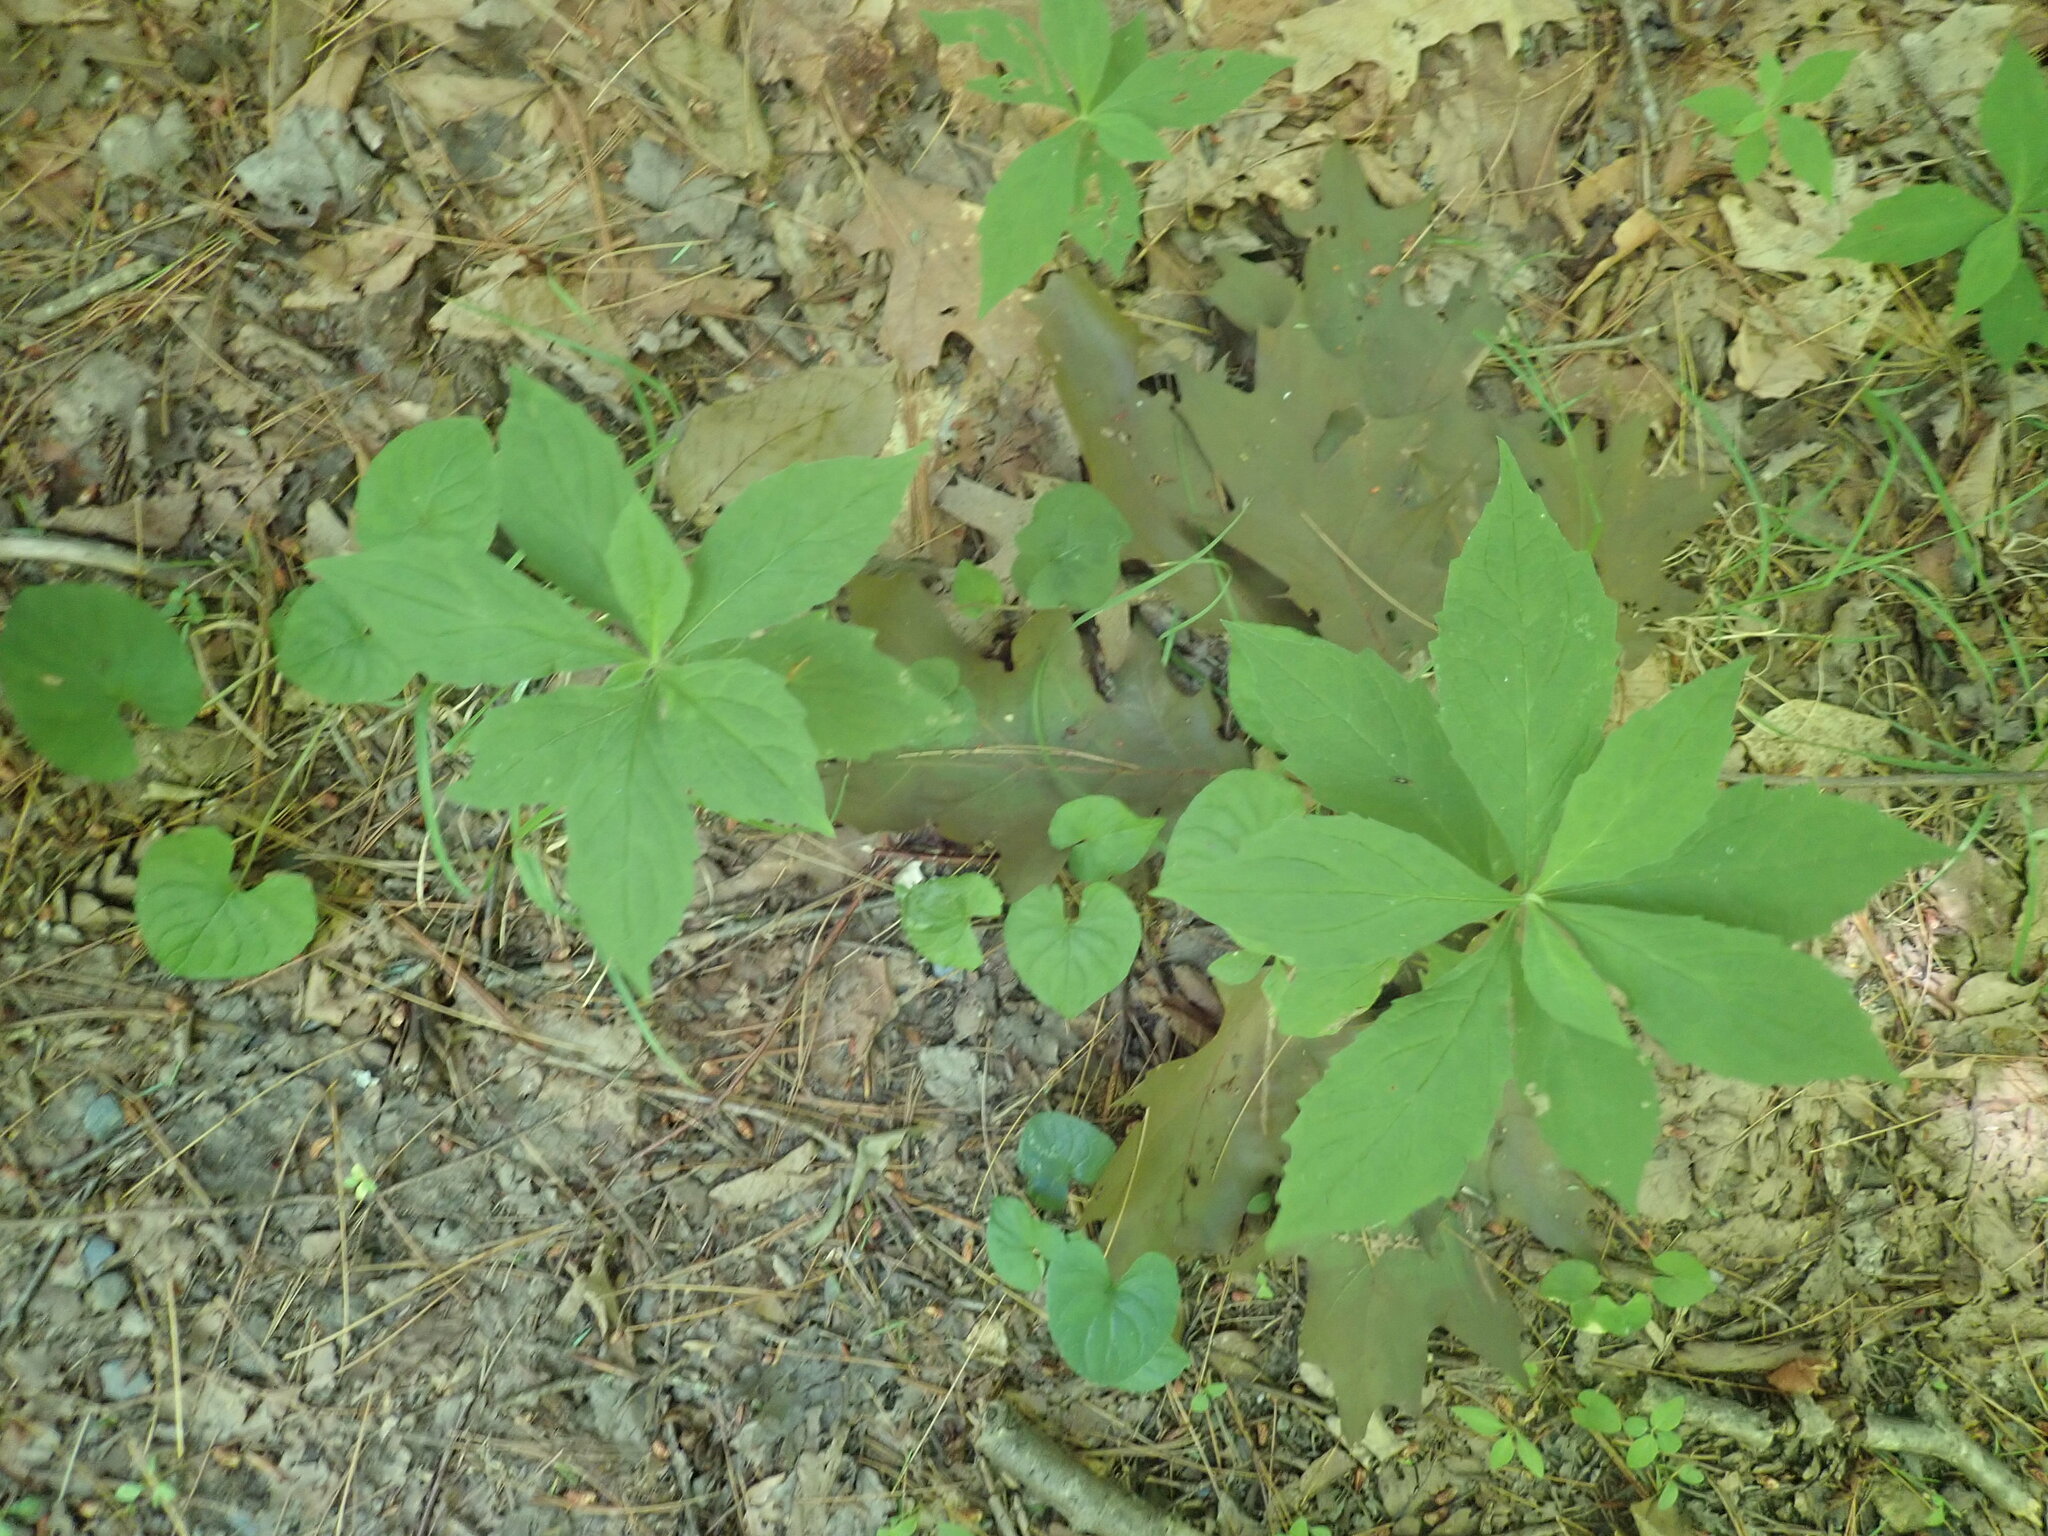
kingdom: Plantae
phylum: Tracheophyta
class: Magnoliopsida
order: Asterales
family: Asteraceae
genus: Oclemena
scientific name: Oclemena acuminata
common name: Mountain aster
